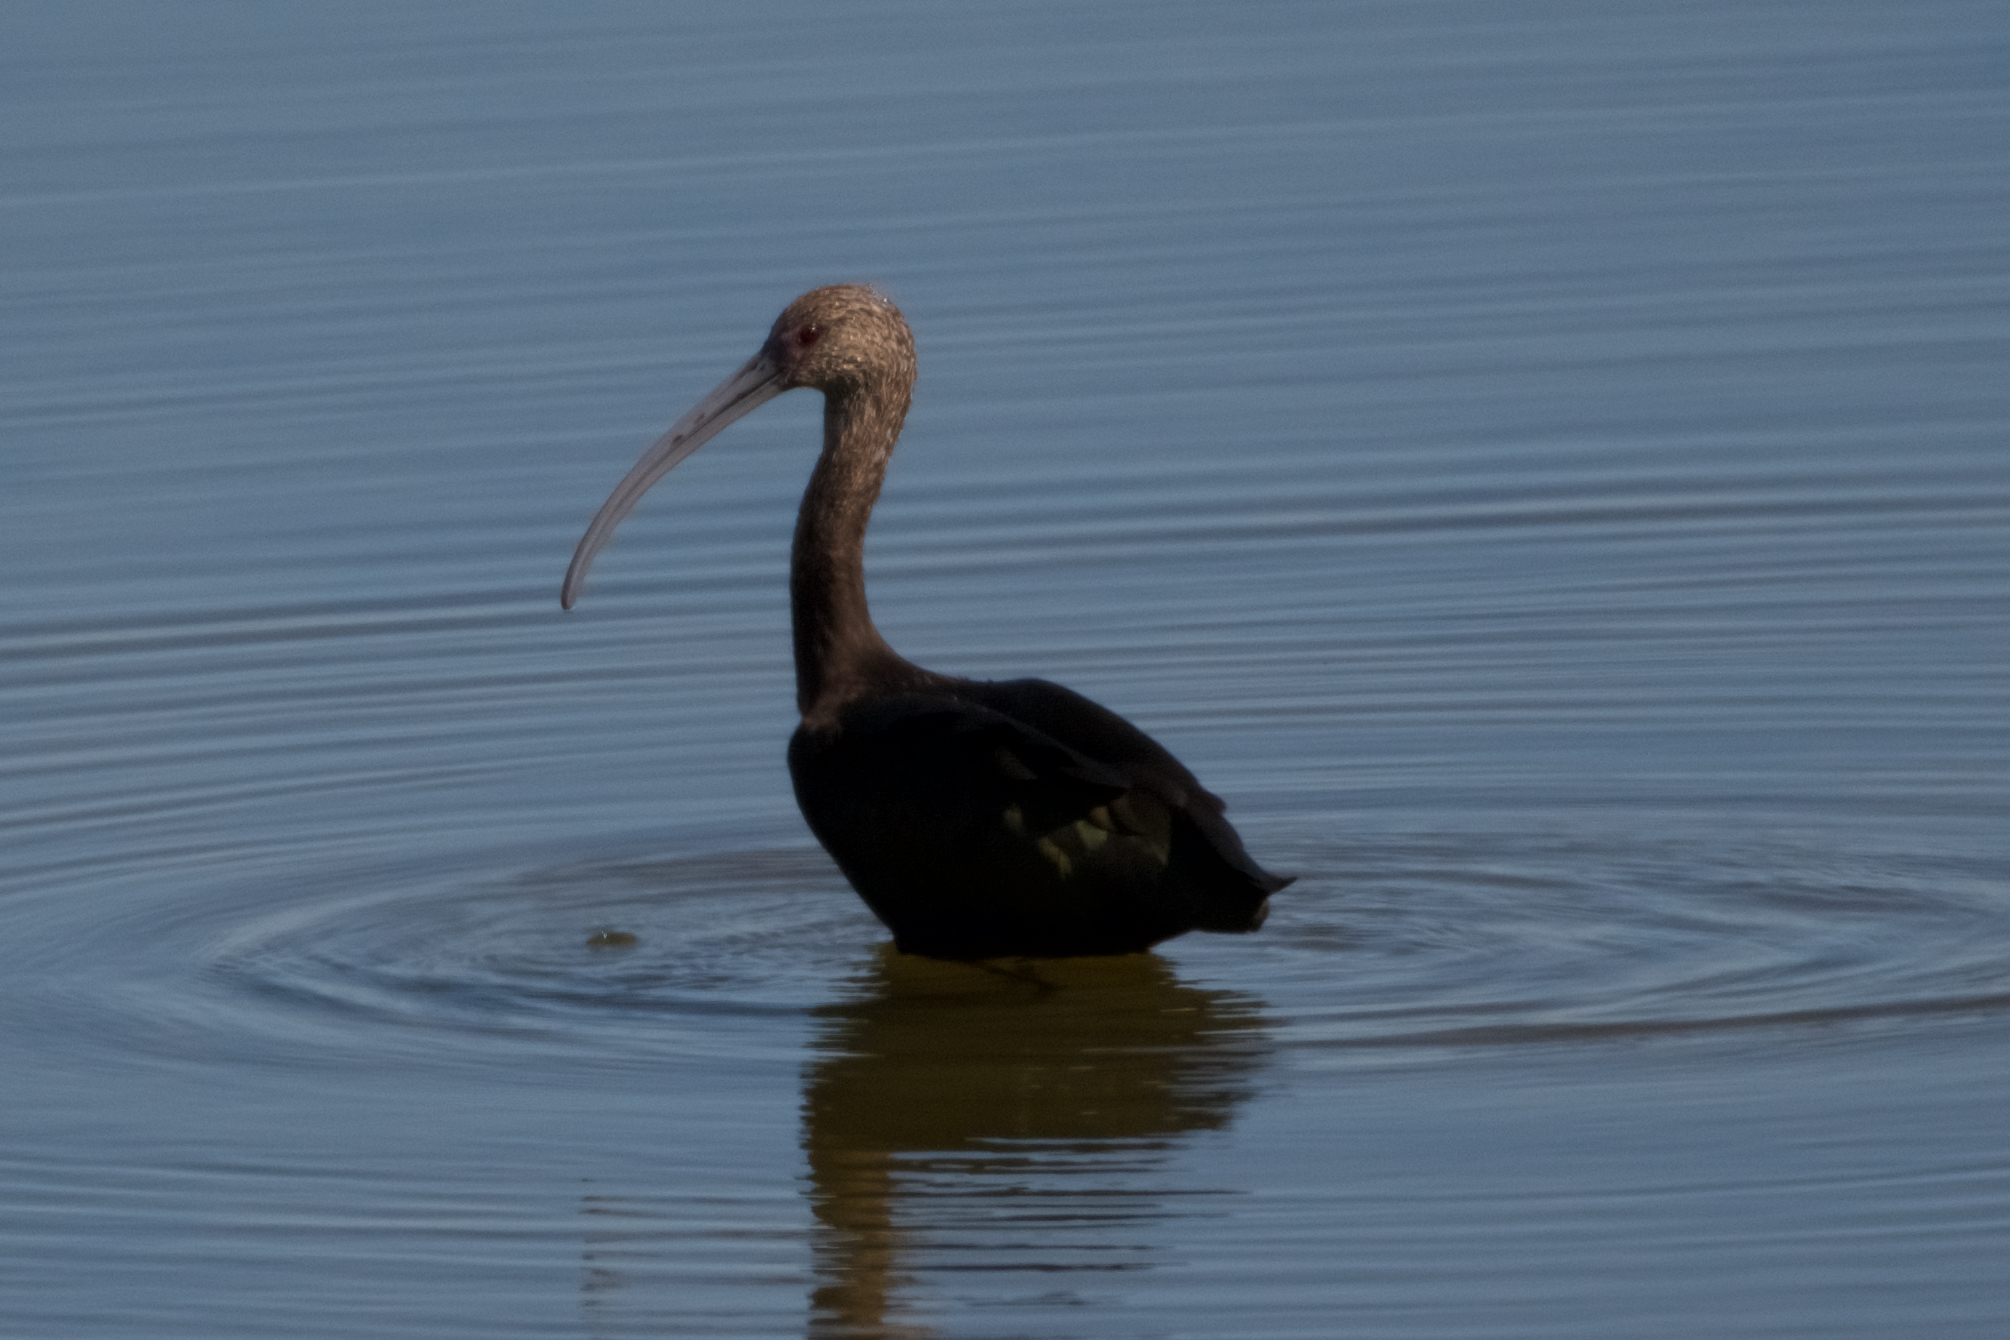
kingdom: Animalia
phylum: Chordata
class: Aves
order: Pelecaniformes
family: Threskiornithidae
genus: Plegadis
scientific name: Plegadis chihi
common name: White-faced ibis
